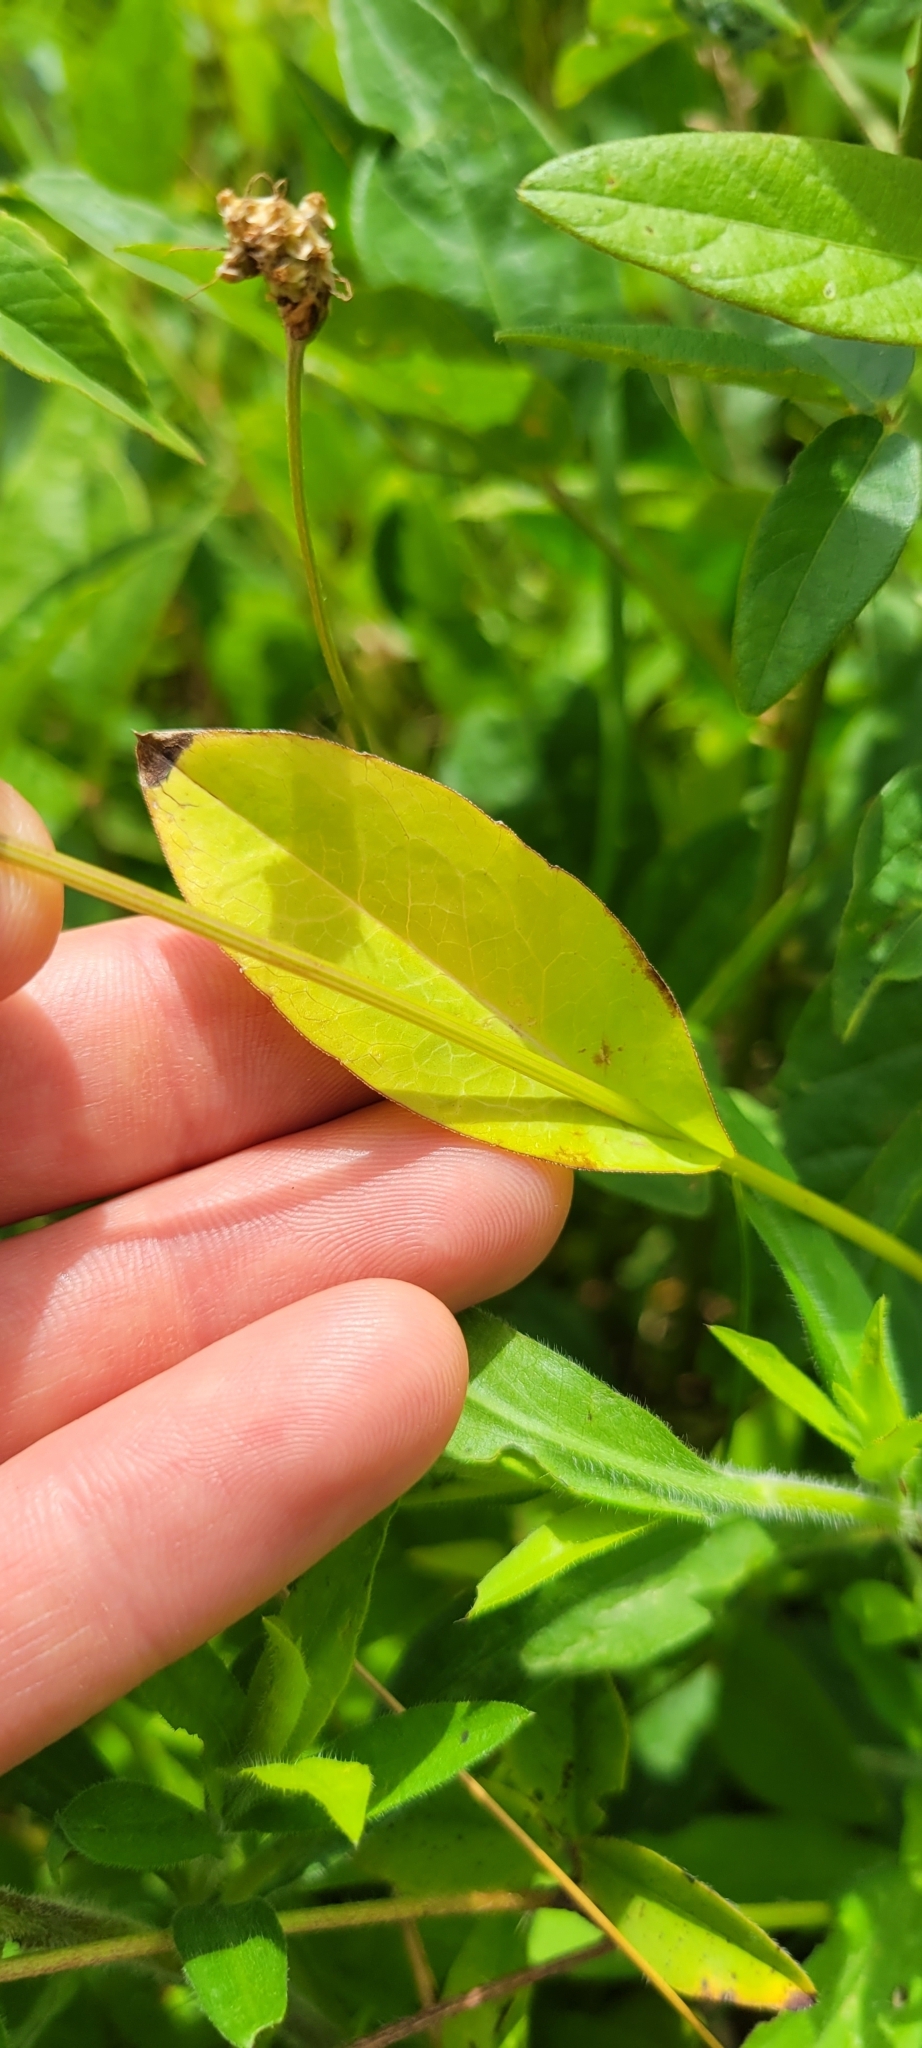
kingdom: Plantae
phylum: Tracheophyta
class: Magnoliopsida
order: Asterales
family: Asteraceae
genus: Rudbeckia
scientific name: Rudbeckia amplexicaulis
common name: Clasping-leaf coneflower
